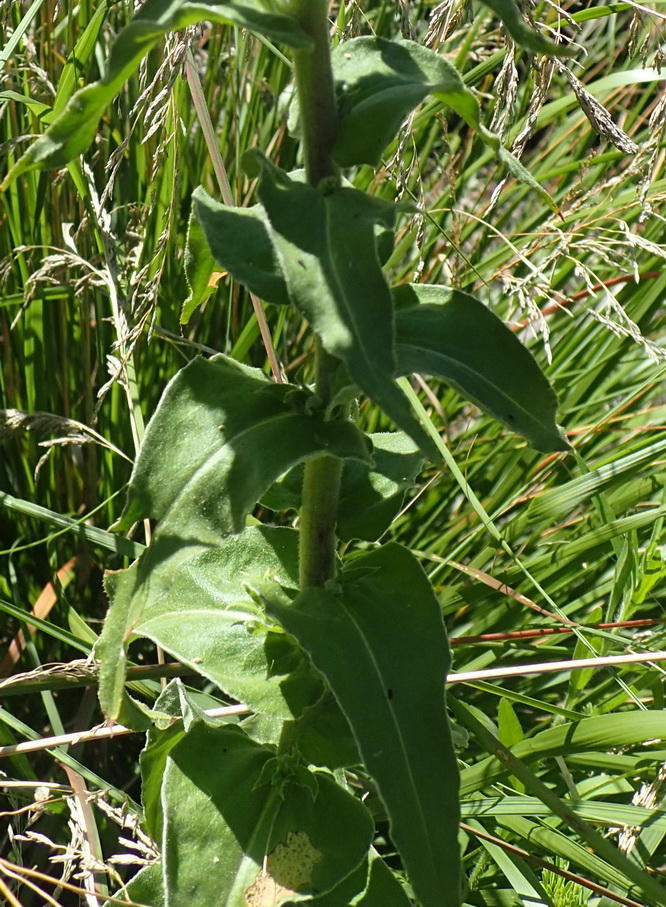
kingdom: Plantae
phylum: Tracheophyta
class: Magnoliopsida
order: Asterales
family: Asteraceae
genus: Helichrysum
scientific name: Helichrysum foetidum
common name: Stinking everlasting
